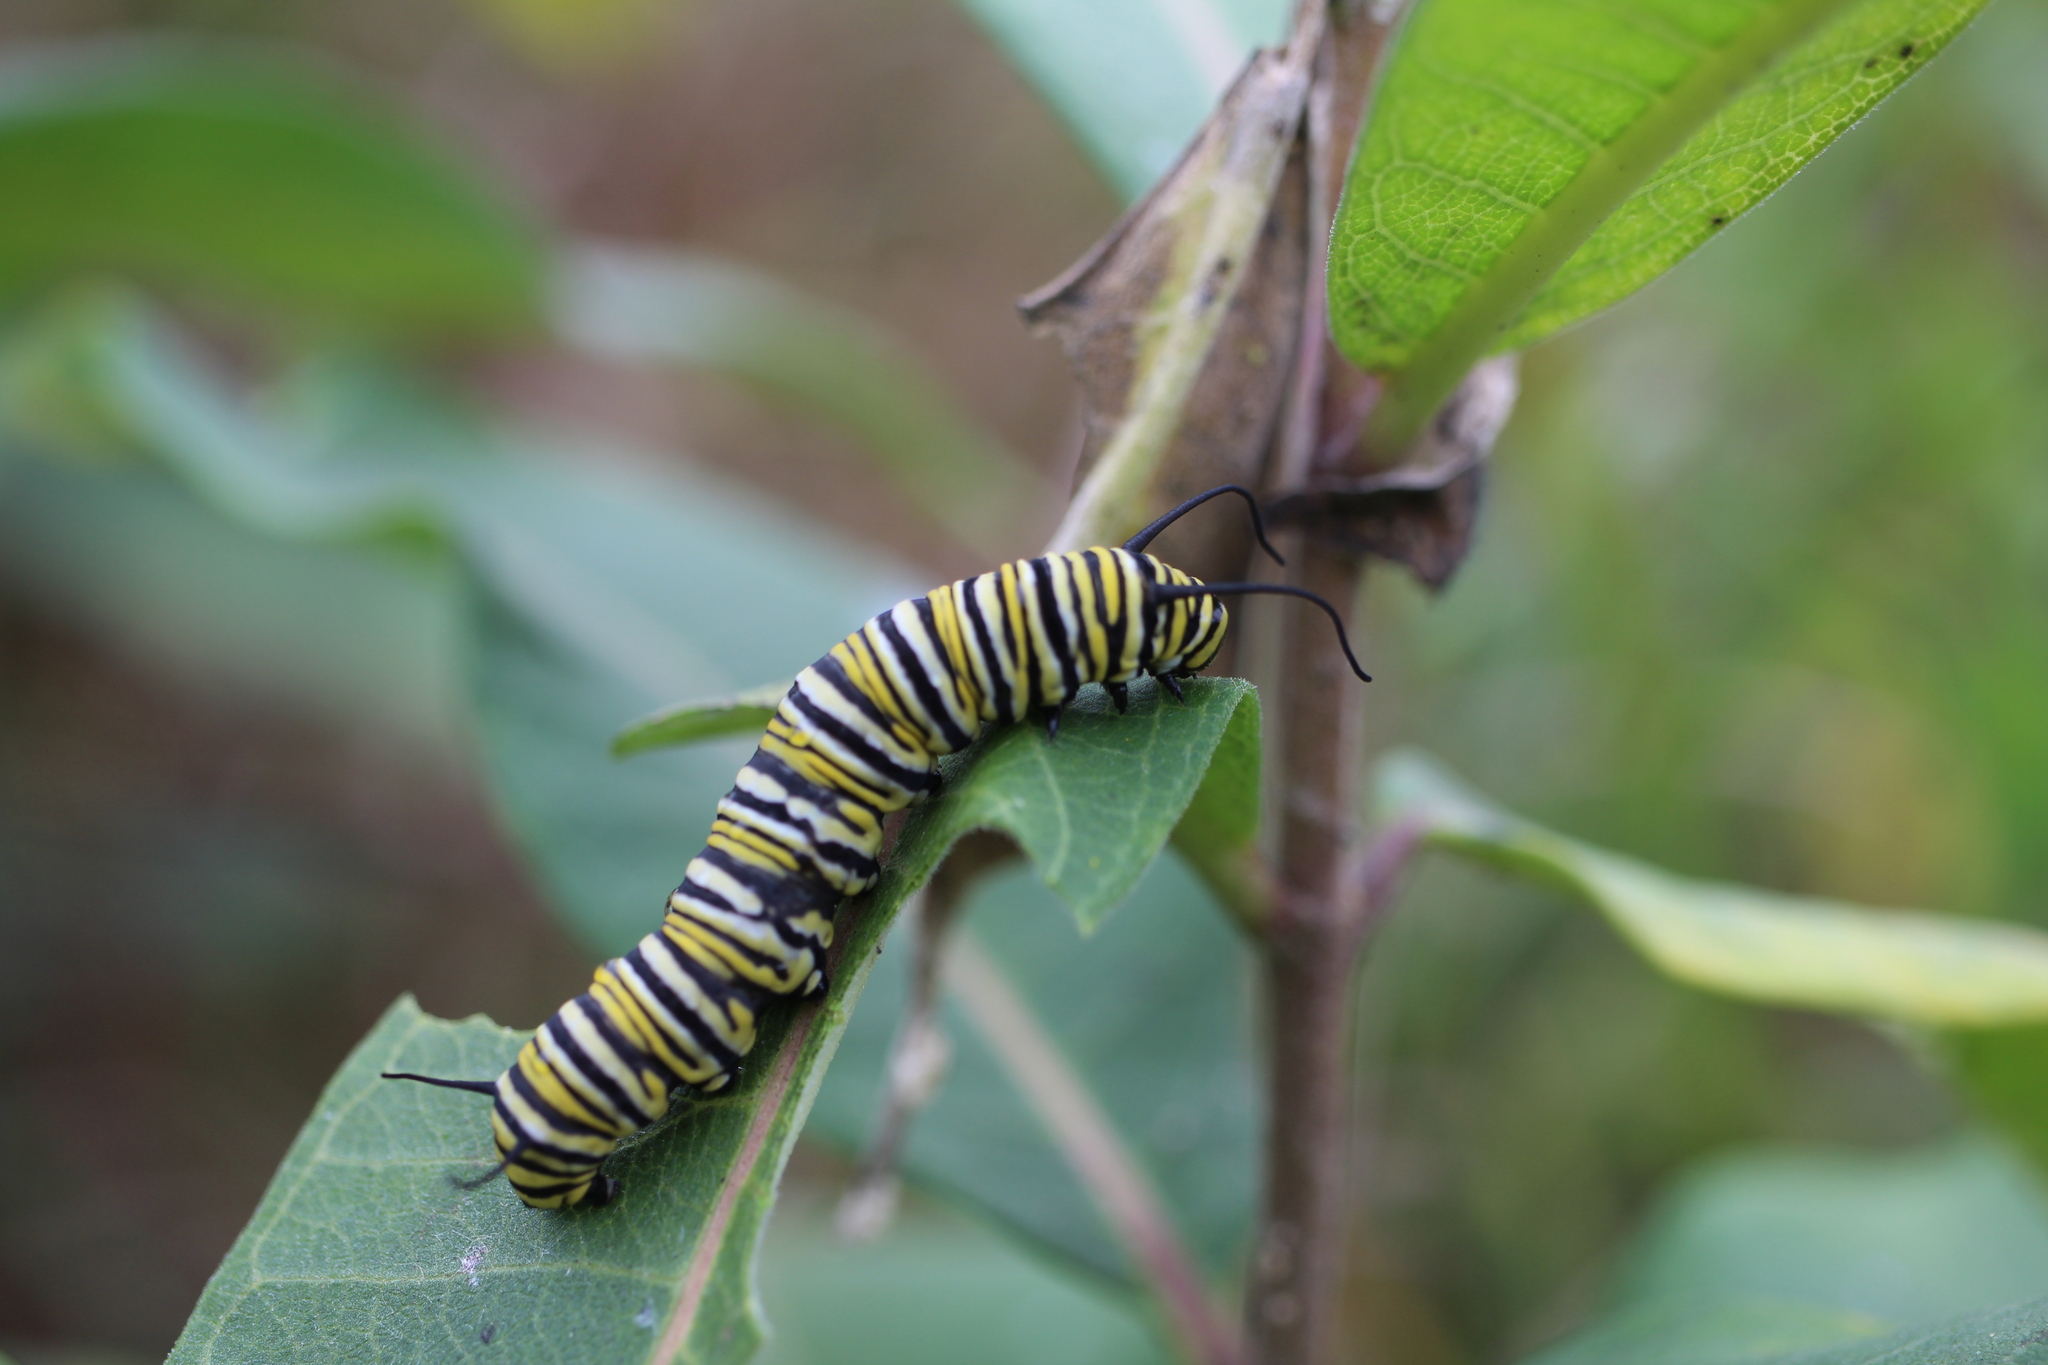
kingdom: Animalia
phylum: Arthropoda
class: Insecta
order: Lepidoptera
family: Nymphalidae
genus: Danaus
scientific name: Danaus plexippus
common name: Monarch
